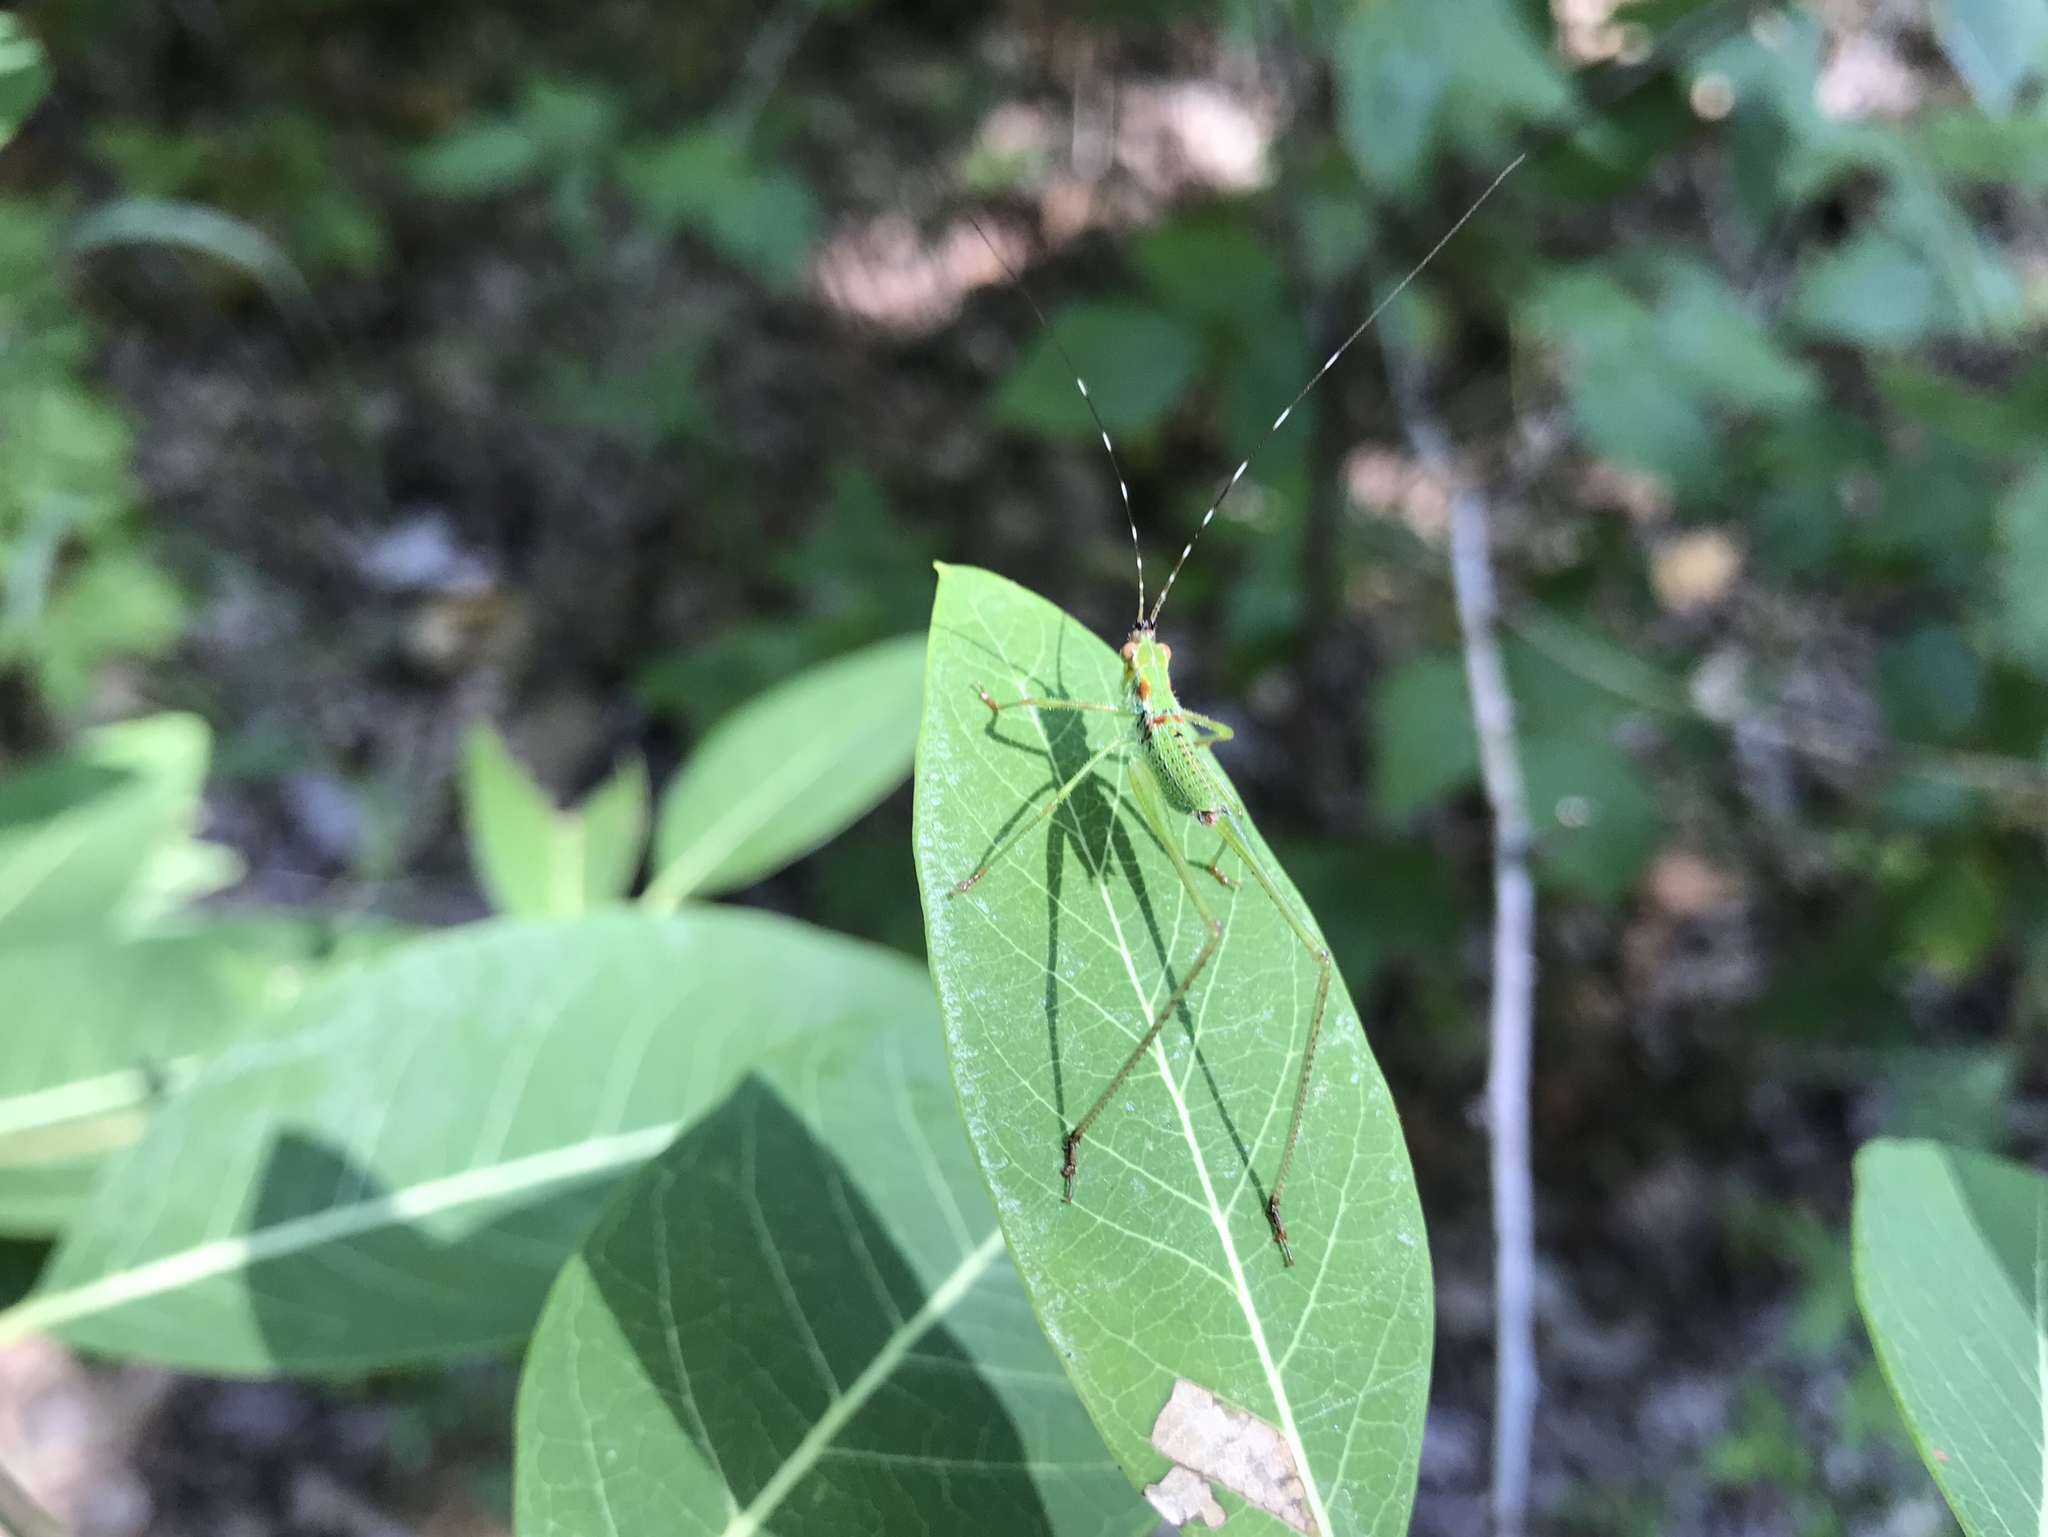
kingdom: Animalia
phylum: Arthropoda
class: Insecta
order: Orthoptera
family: Tettigoniidae
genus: Scudderia
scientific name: Scudderia
